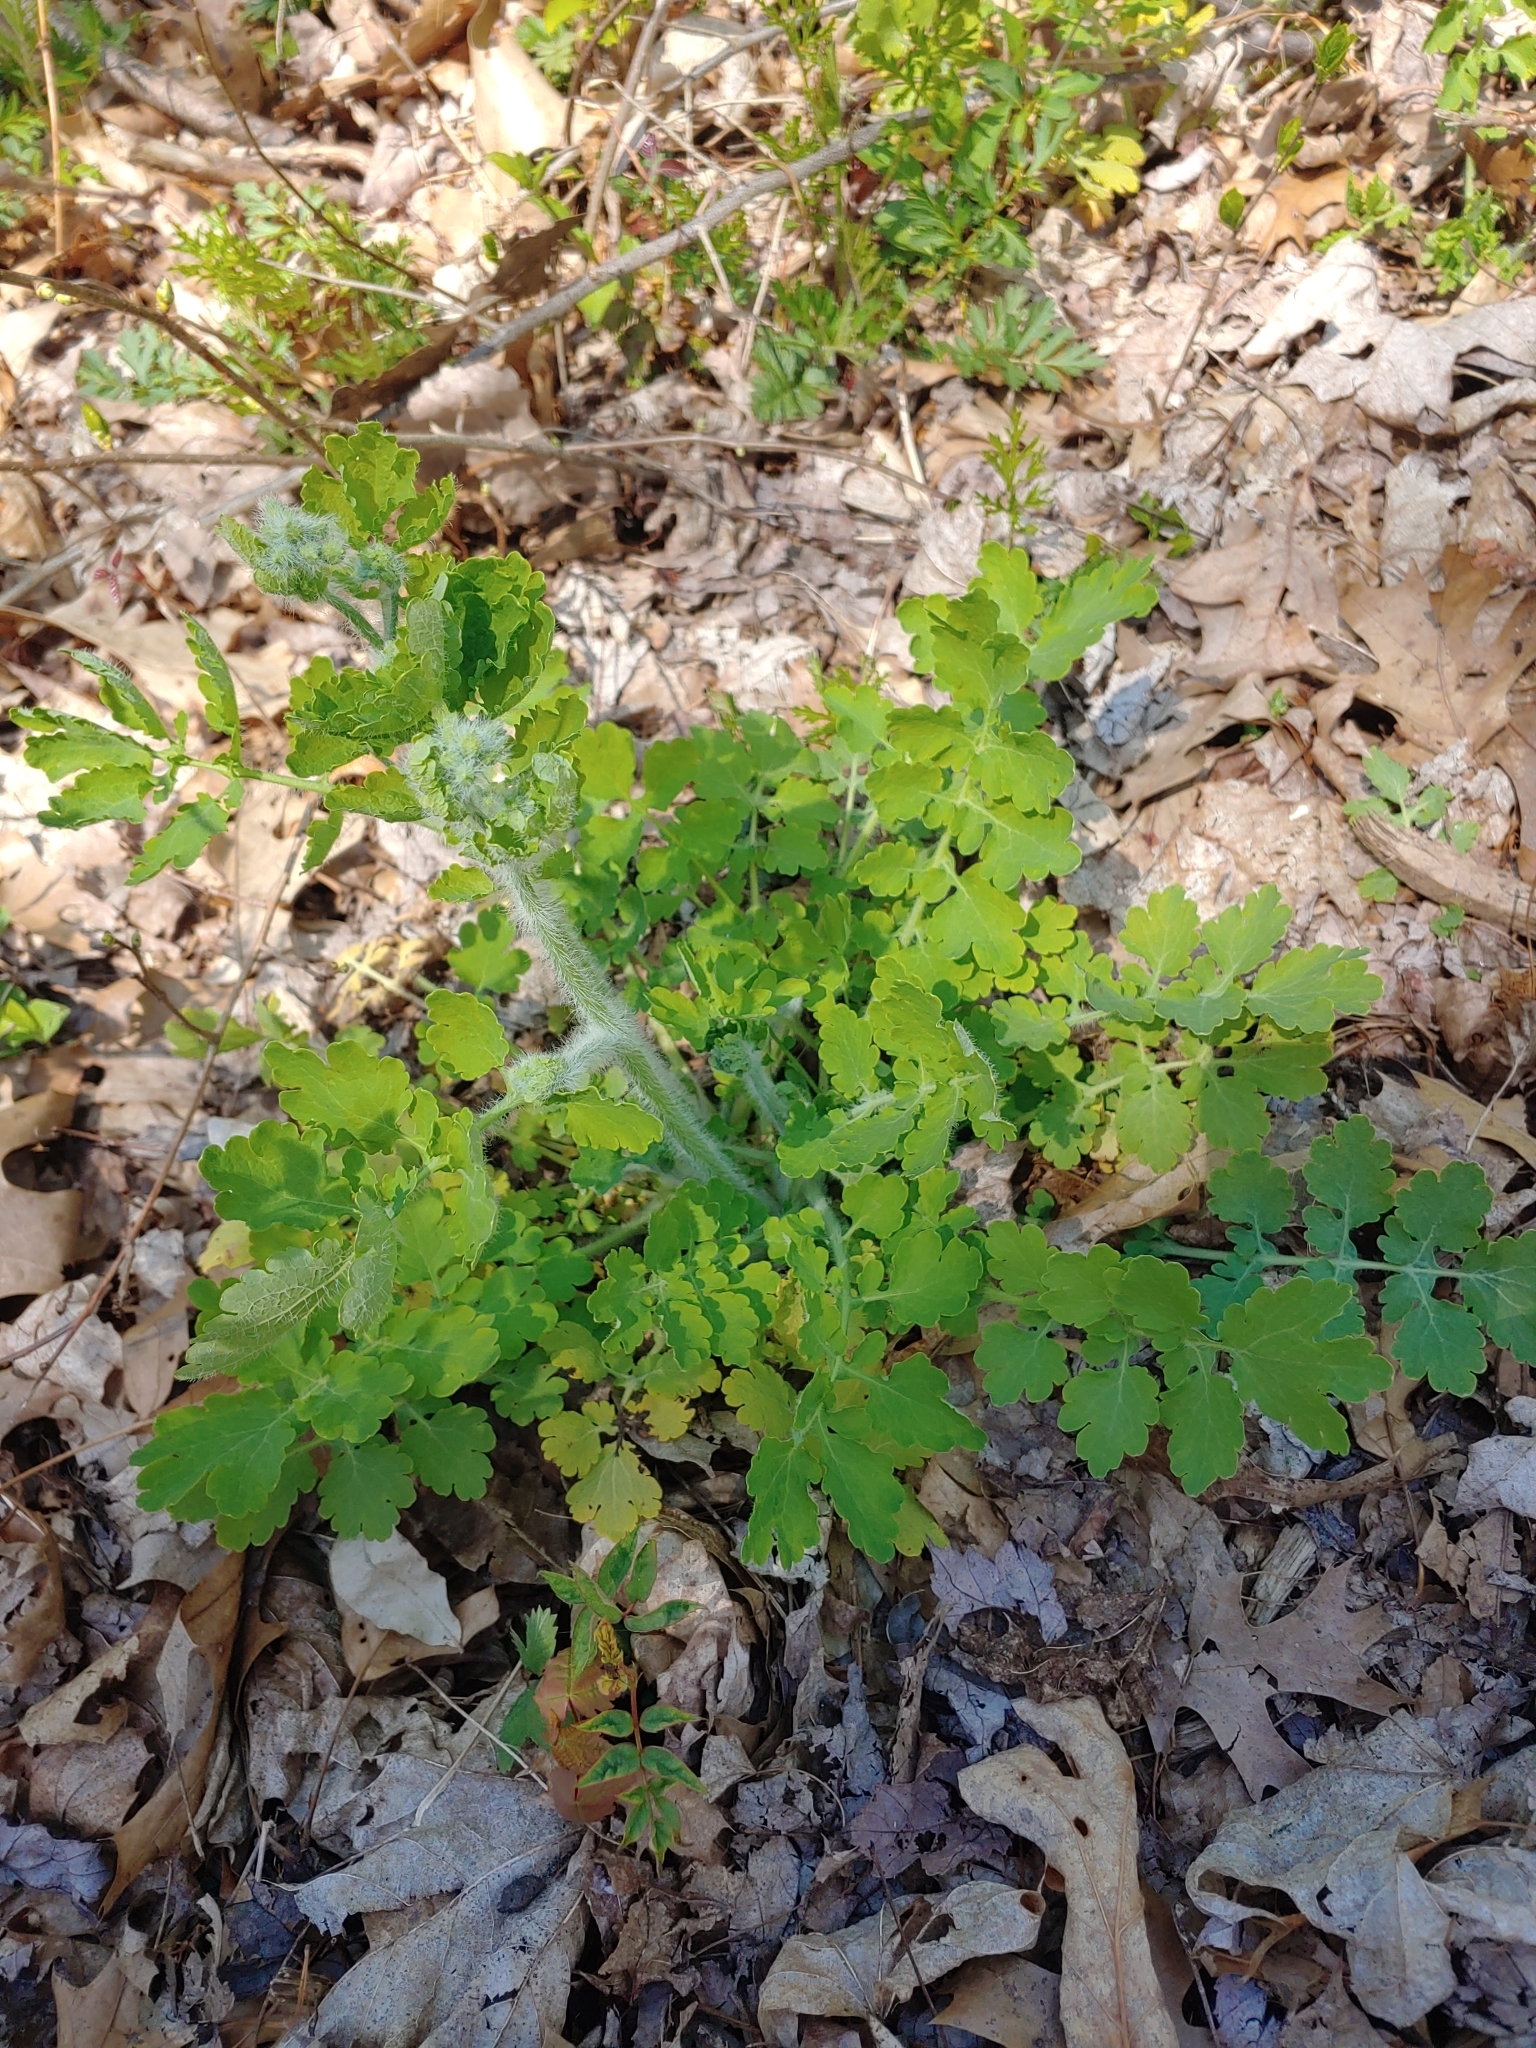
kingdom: Plantae
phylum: Tracheophyta
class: Magnoliopsida
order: Ranunculales
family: Papaveraceae
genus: Chelidonium
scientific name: Chelidonium majus
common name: Greater celandine
